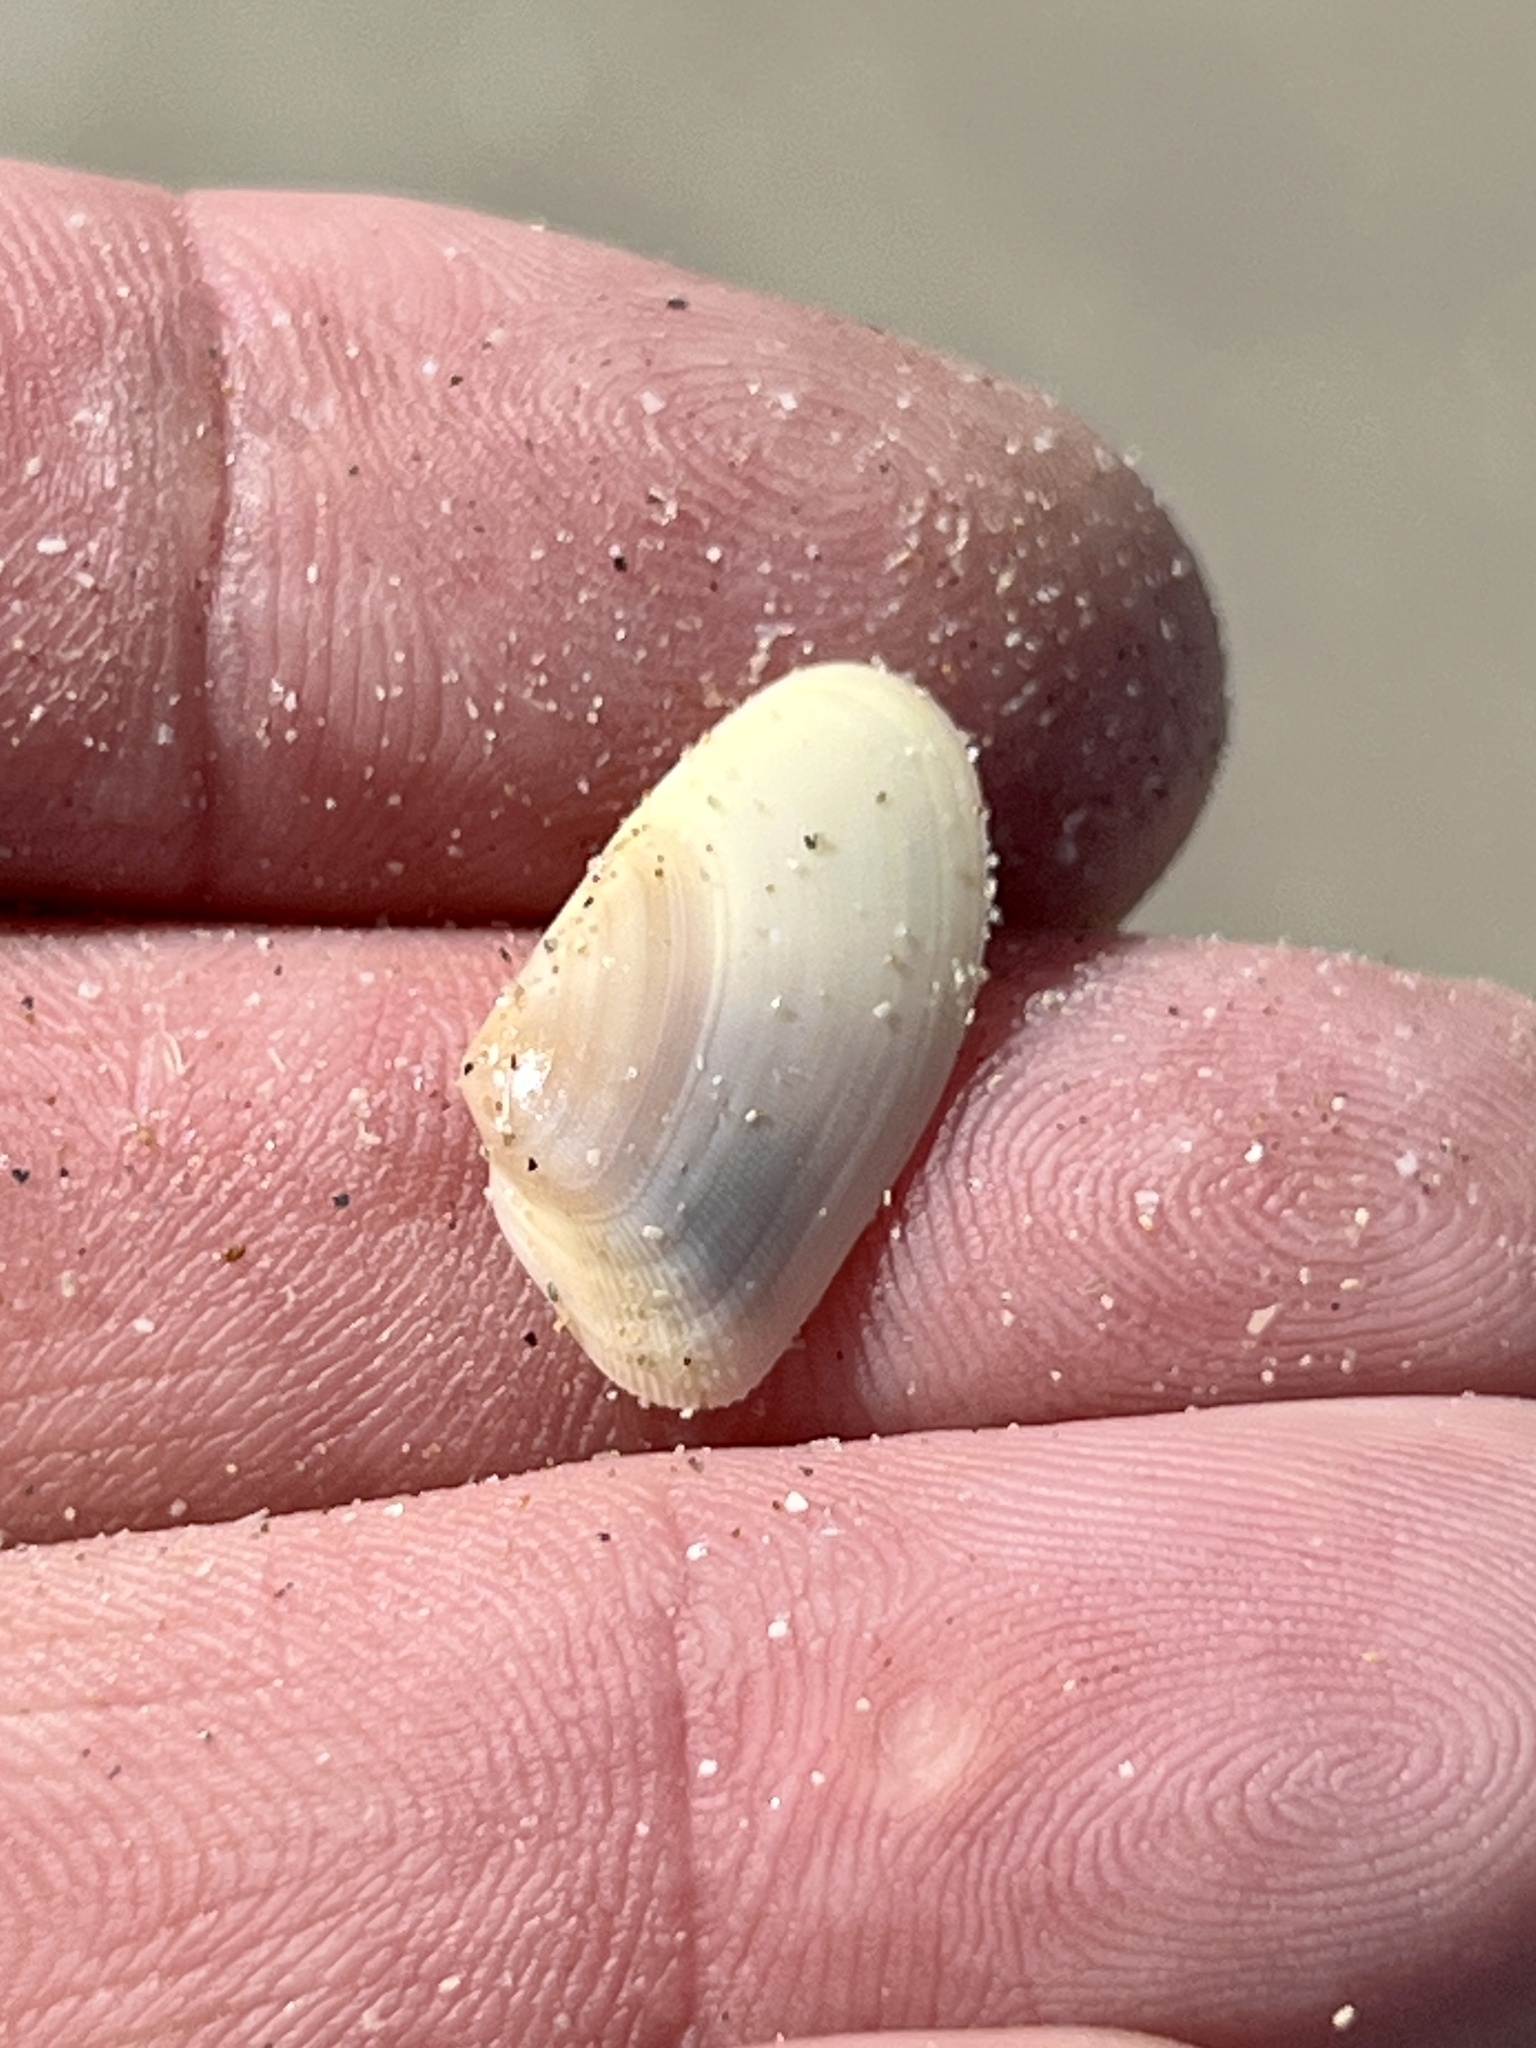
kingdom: Animalia
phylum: Mollusca
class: Bivalvia
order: Cardiida
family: Donacidae
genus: Donax
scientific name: Donax variabilis
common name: Butterfly shell
